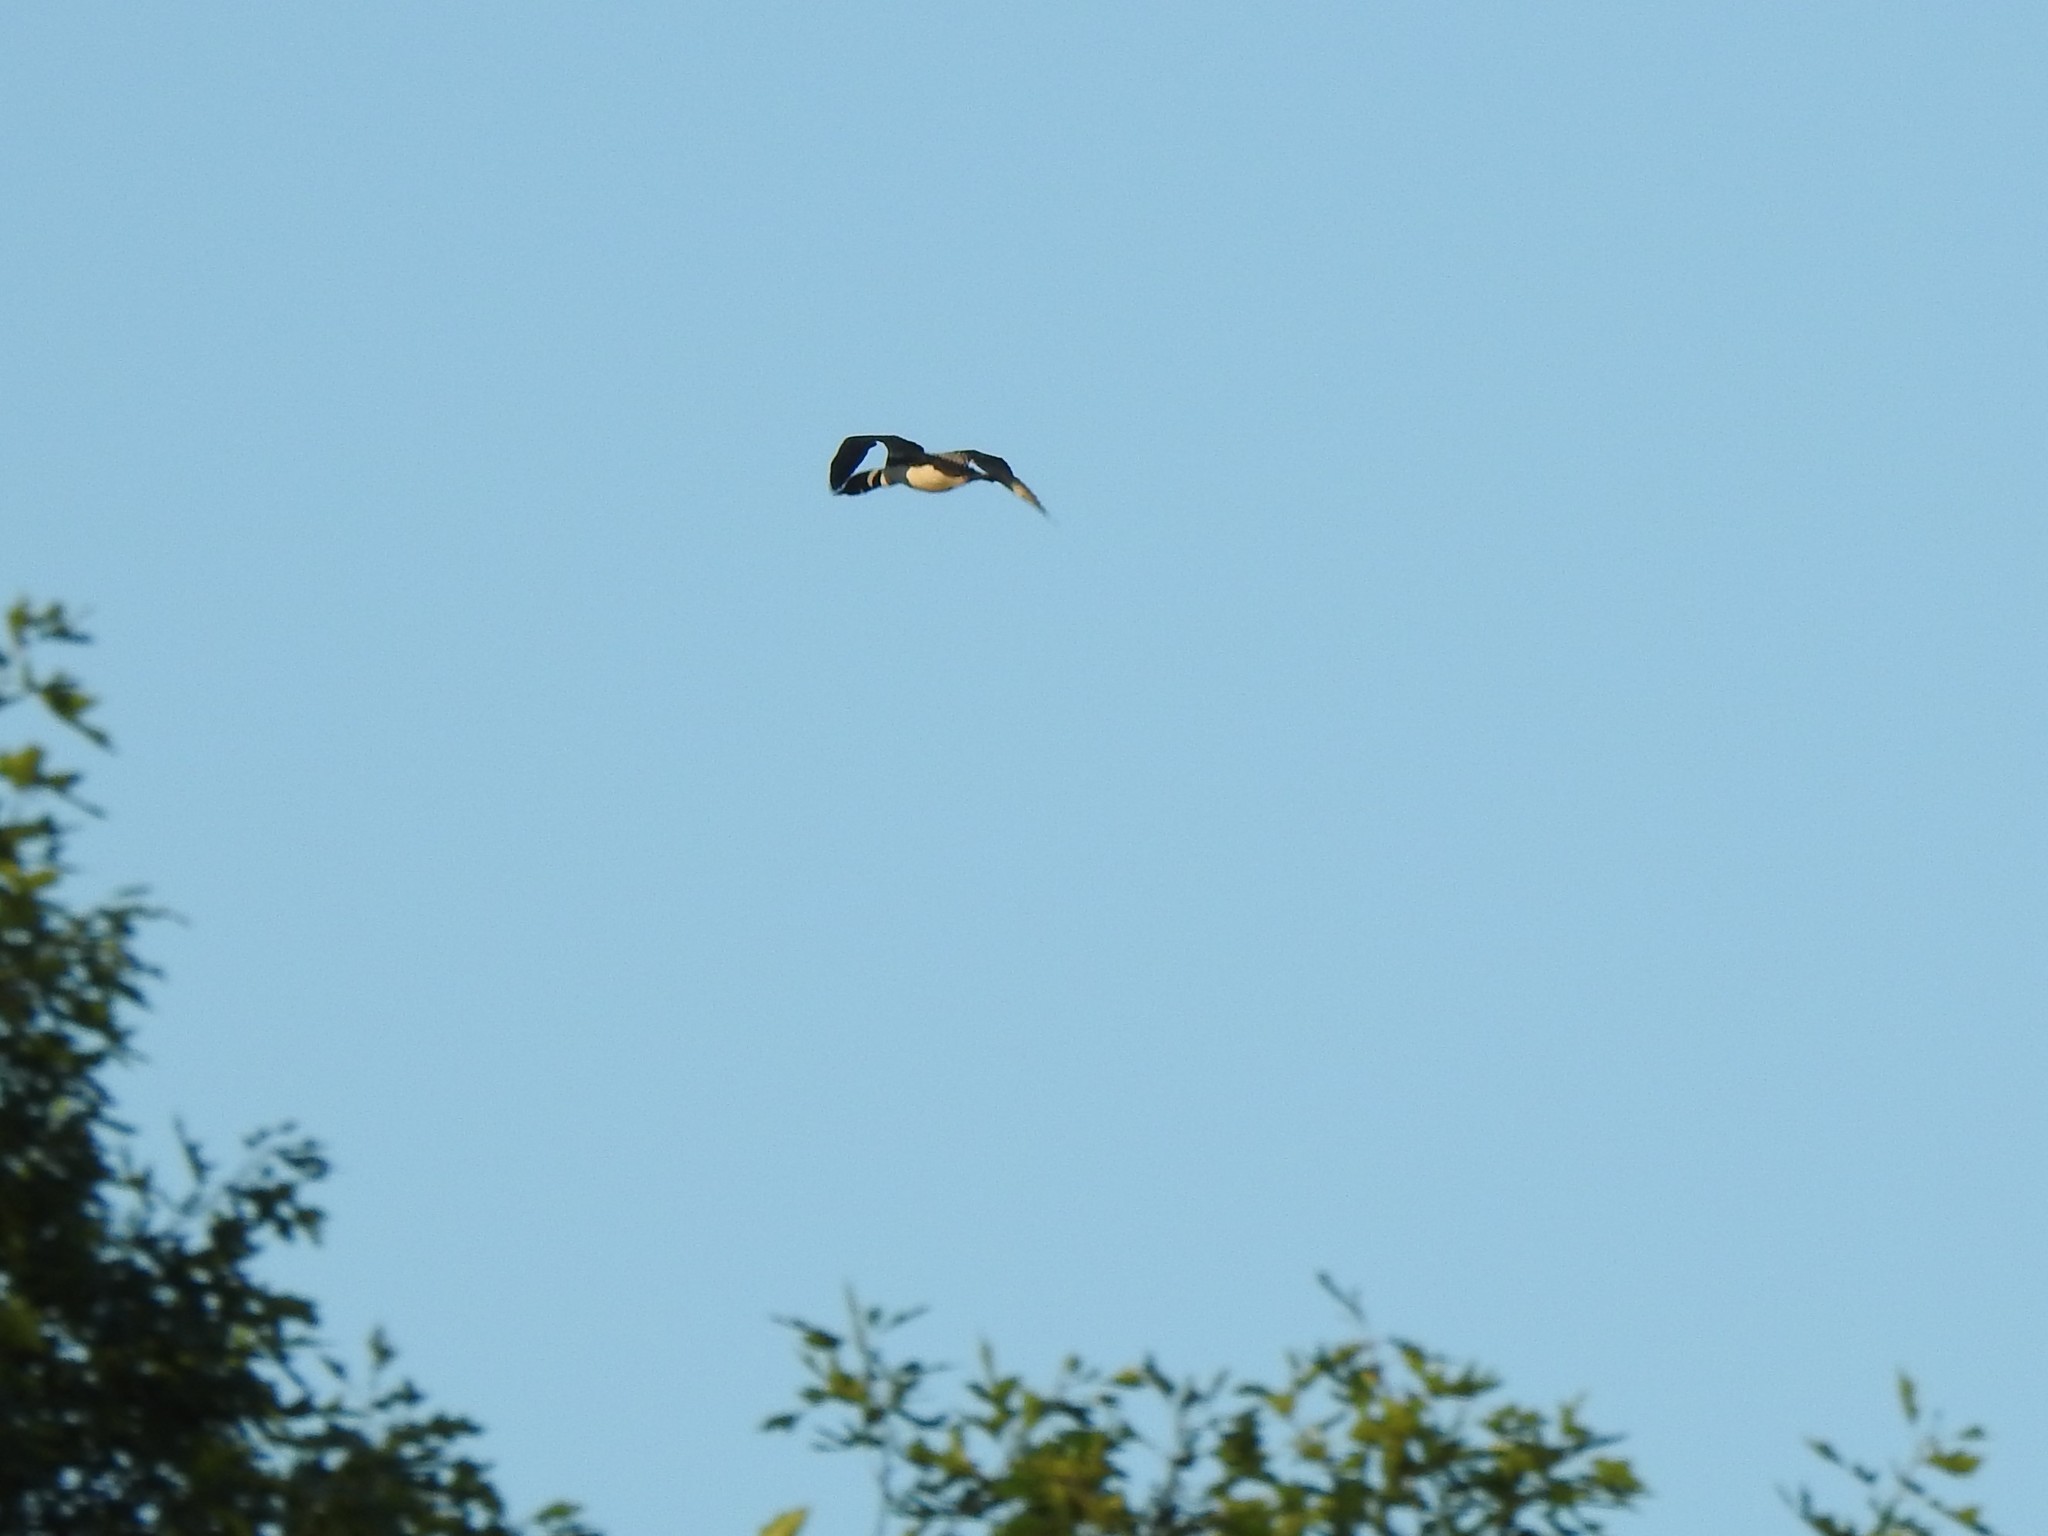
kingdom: Animalia
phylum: Chordata
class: Aves
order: Gaviiformes
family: Gaviidae
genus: Gavia
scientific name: Gavia immer
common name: Common loon
